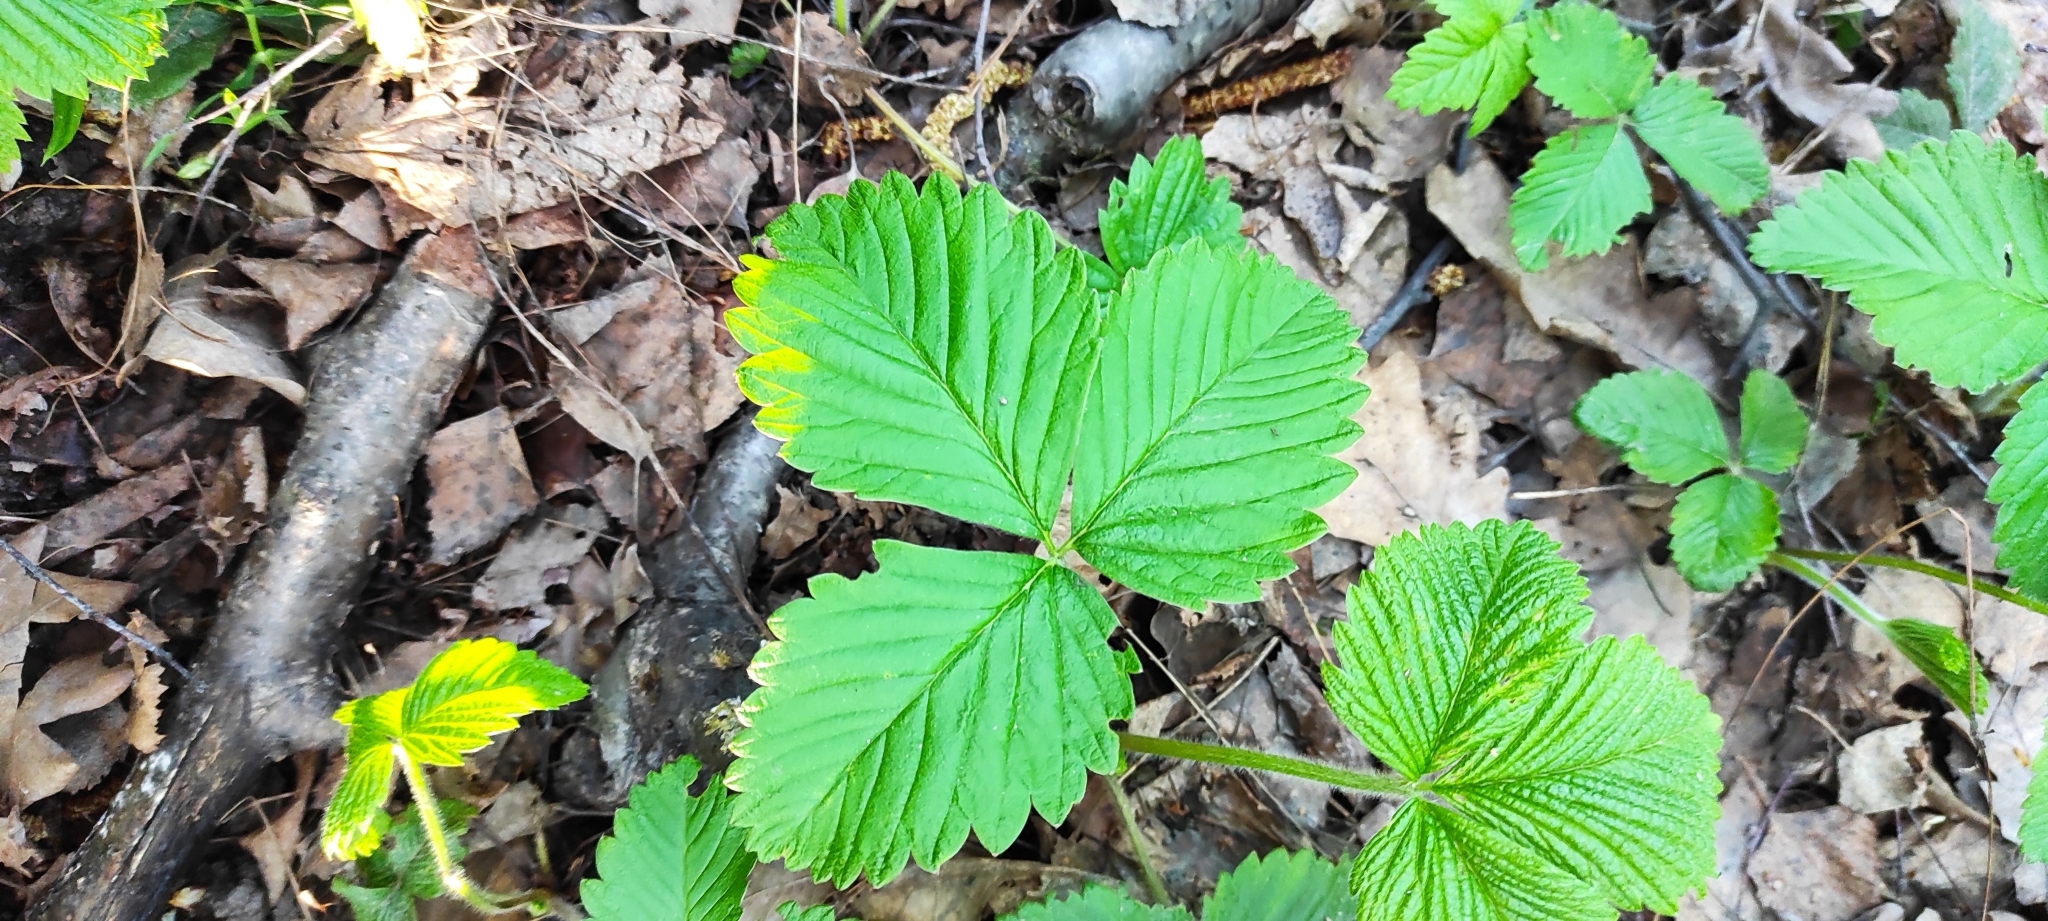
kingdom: Plantae
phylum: Tracheophyta
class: Magnoliopsida
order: Rosales
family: Rosaceae
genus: Fragaria
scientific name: Fragaria moschata
